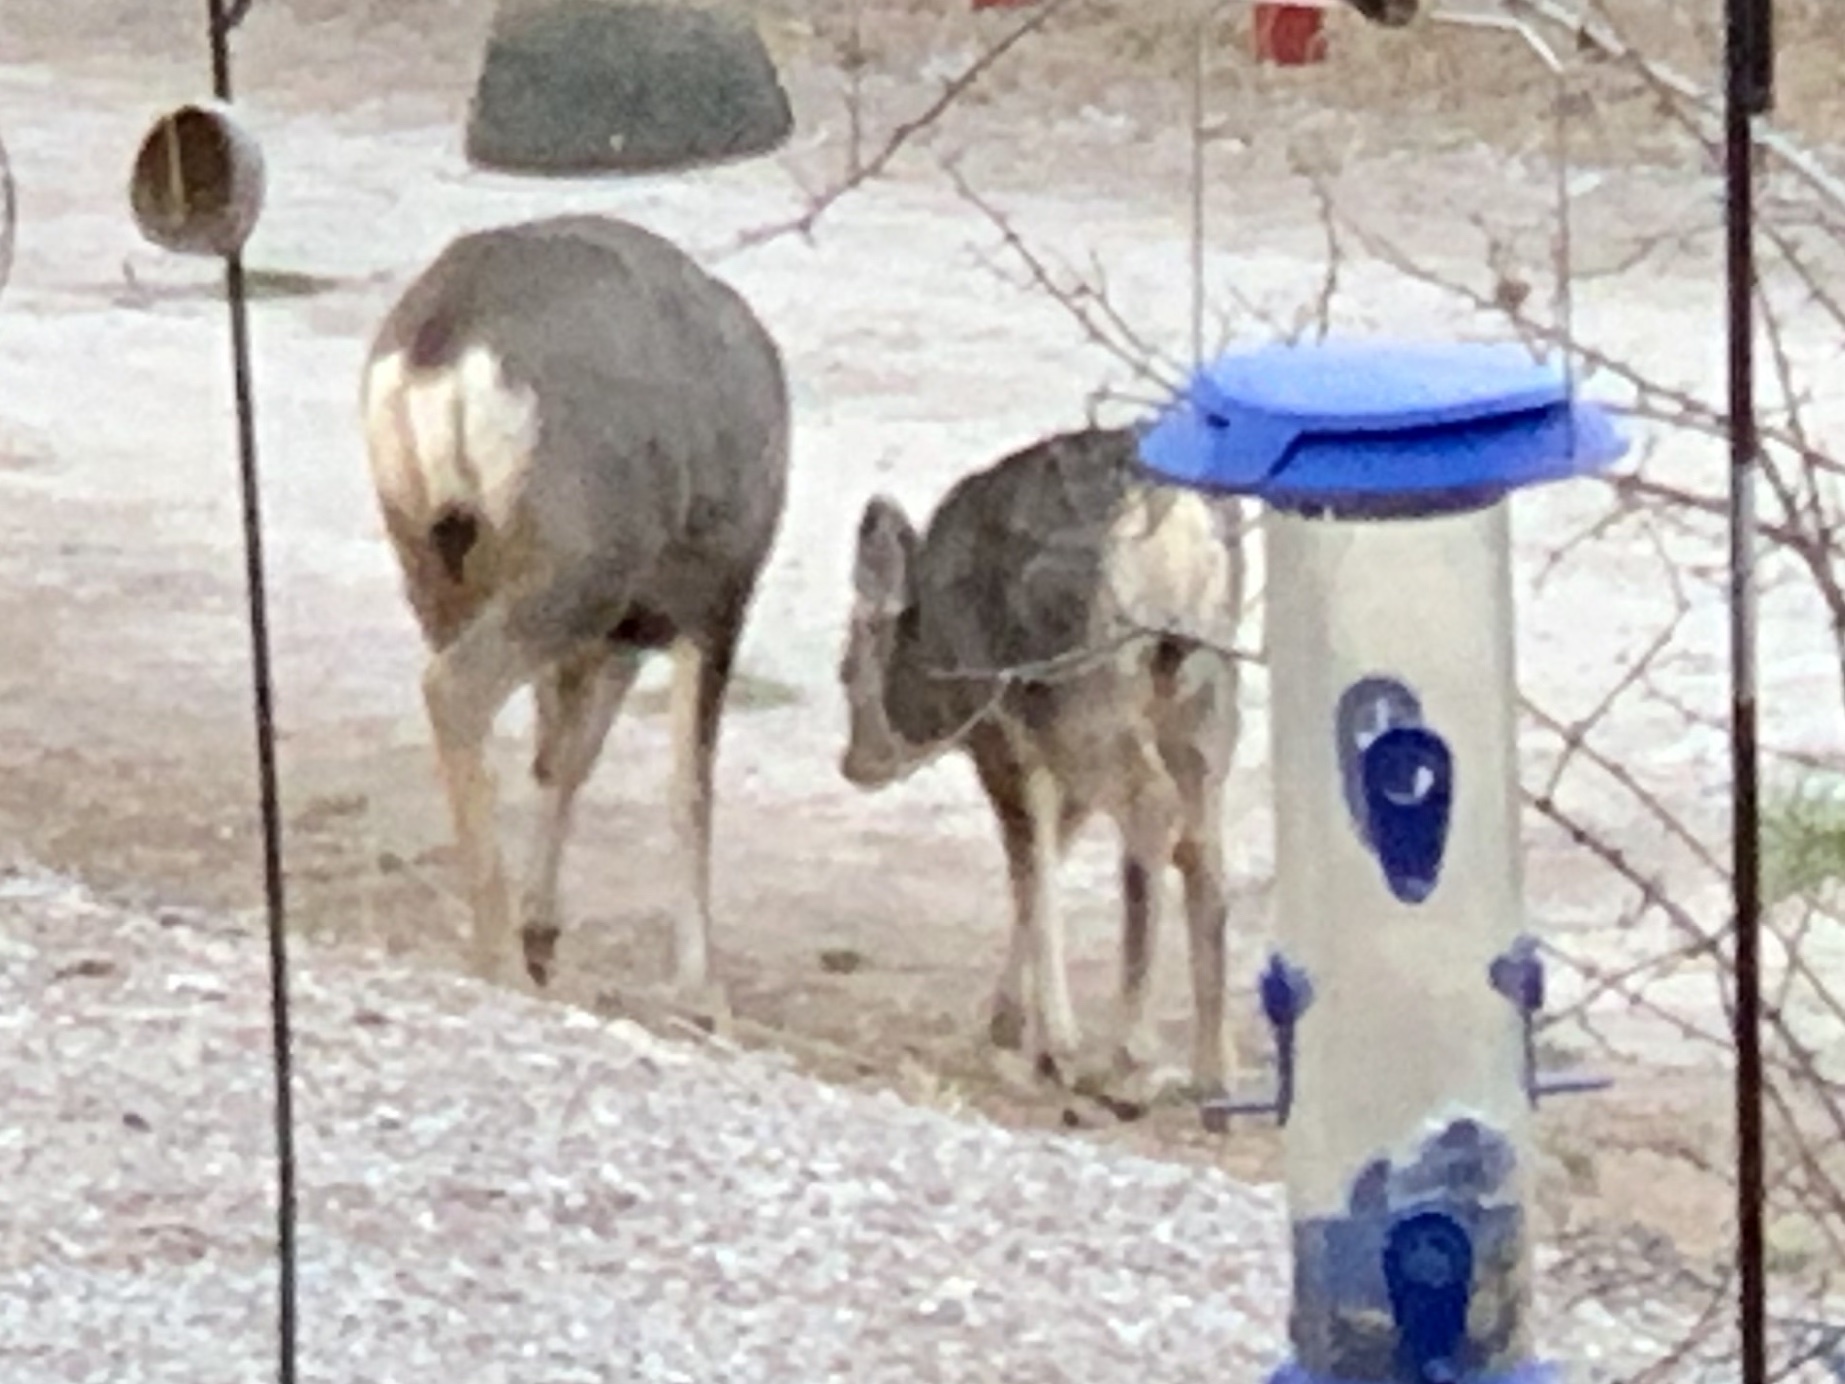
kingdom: Animalia
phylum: Chordata
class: Mammalia
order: Artiodactyla
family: Cervidae
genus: Odocoileus
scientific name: Odocoileus hemionus
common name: Mule deer
